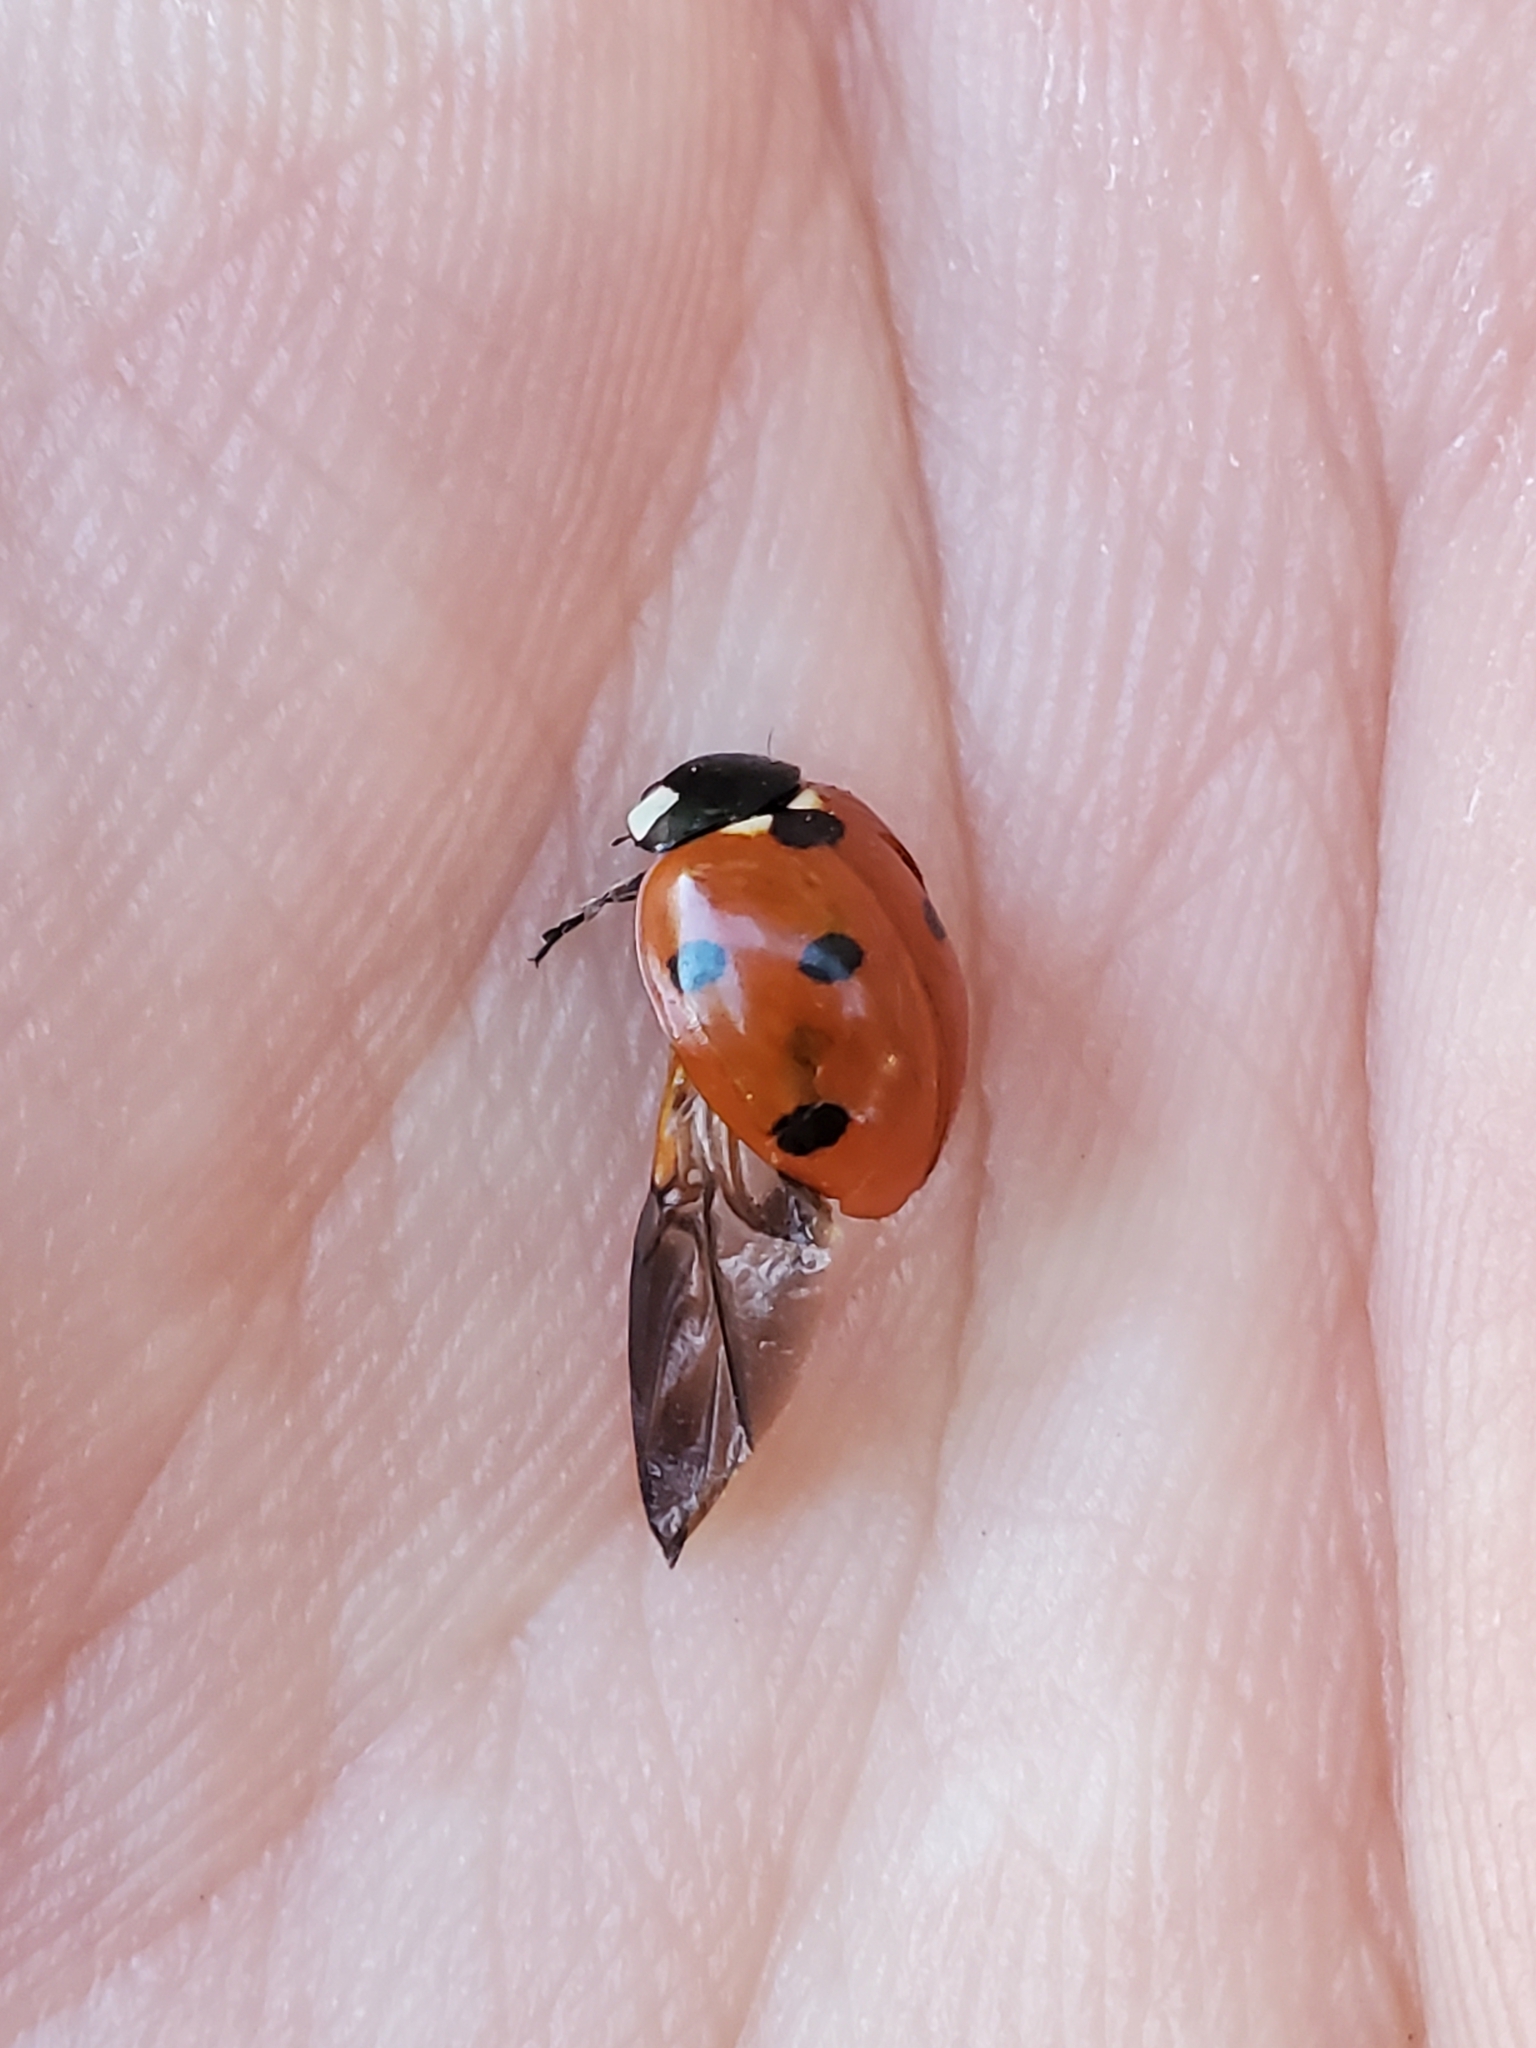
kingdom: Animalia
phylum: Arthropoda
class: Insecta
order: Coleoptera
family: Coccinellidae
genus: Coccinella
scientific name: Coccinella septempunctata
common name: Sevenspotted lady beetle
